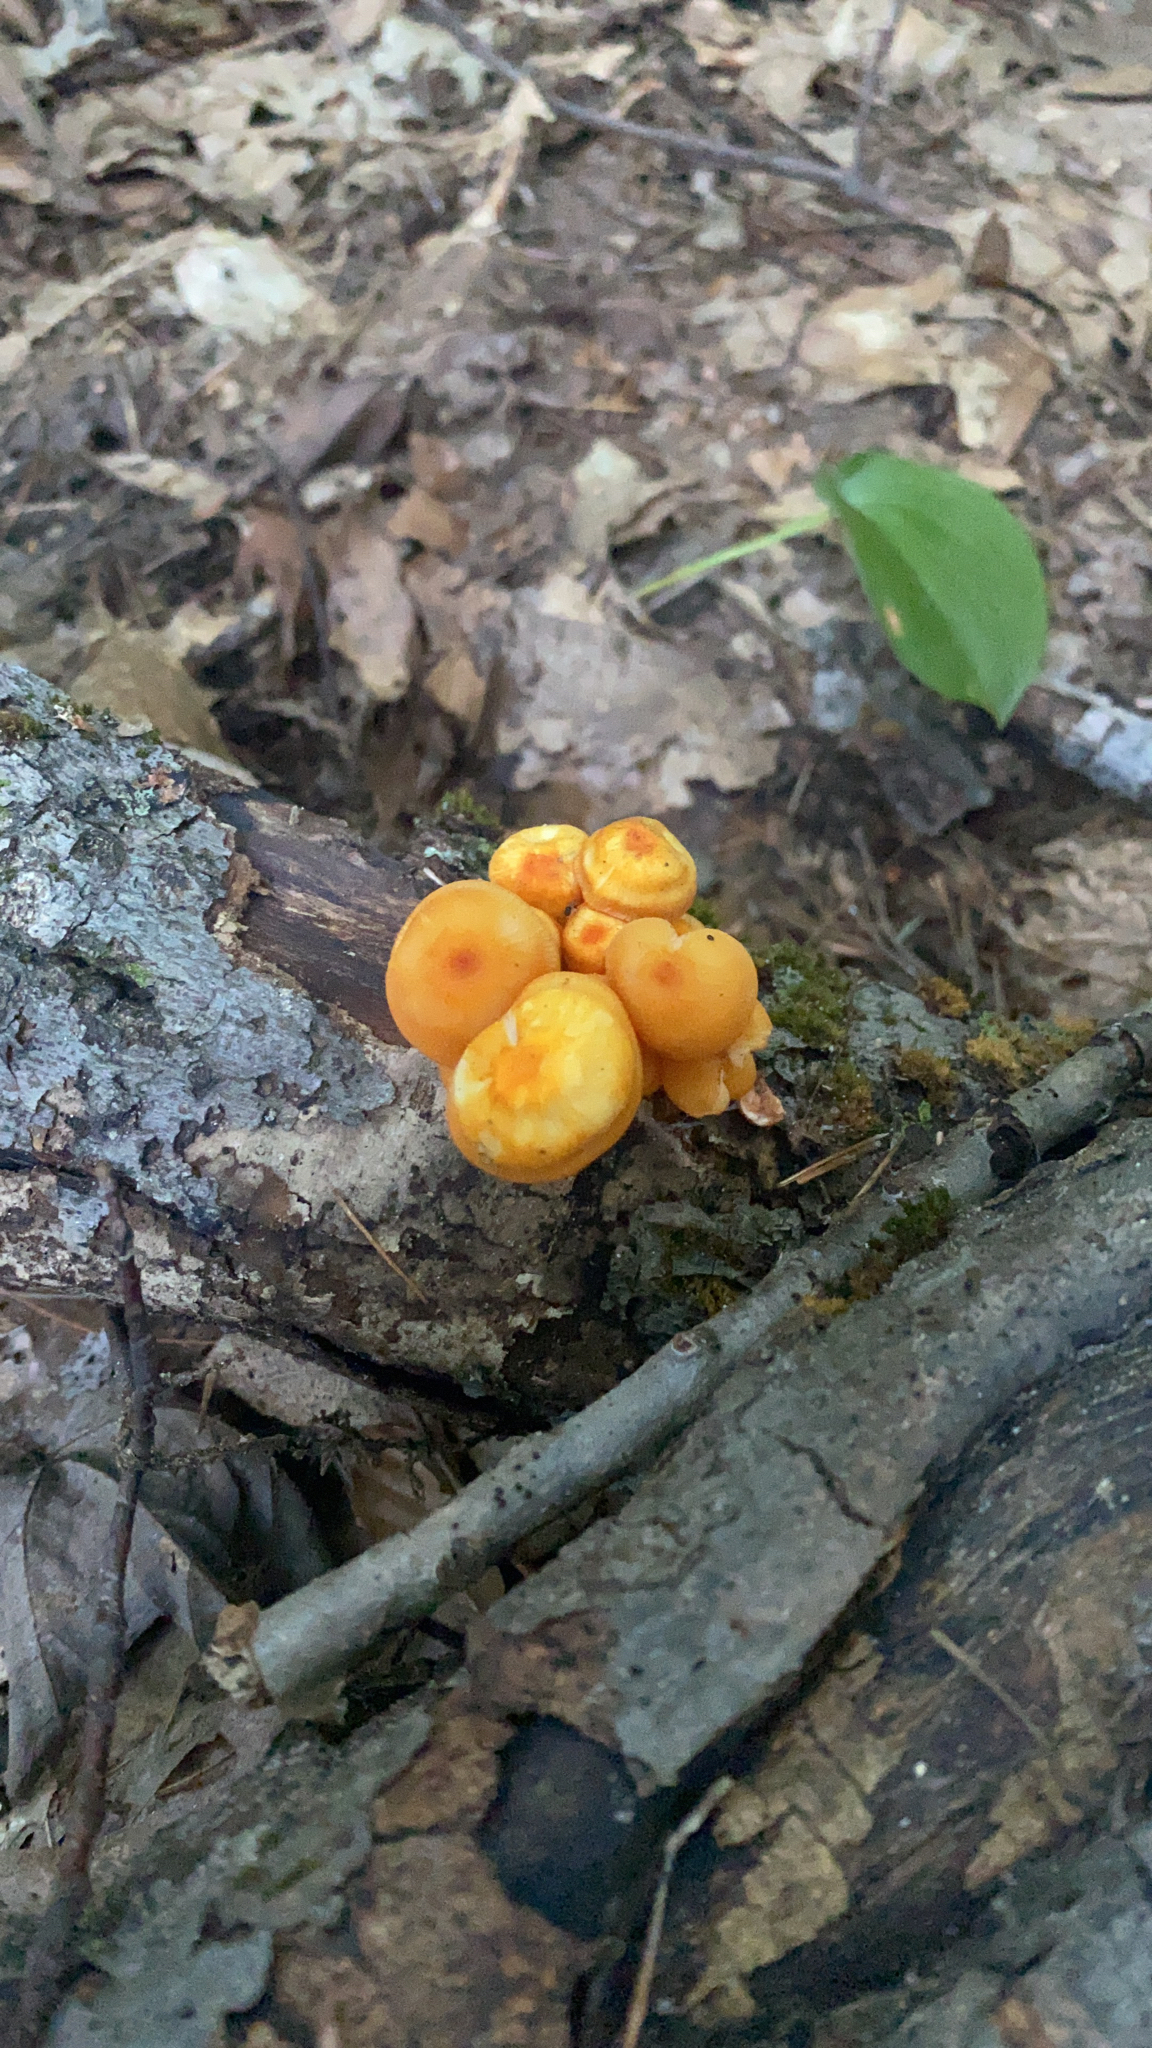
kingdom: Fungi
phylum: Basidiomycota
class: Agaricomycetes
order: Agaricales
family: Mycenaceae
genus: Mycena
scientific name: Mycena leaiana
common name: Orange mycena
